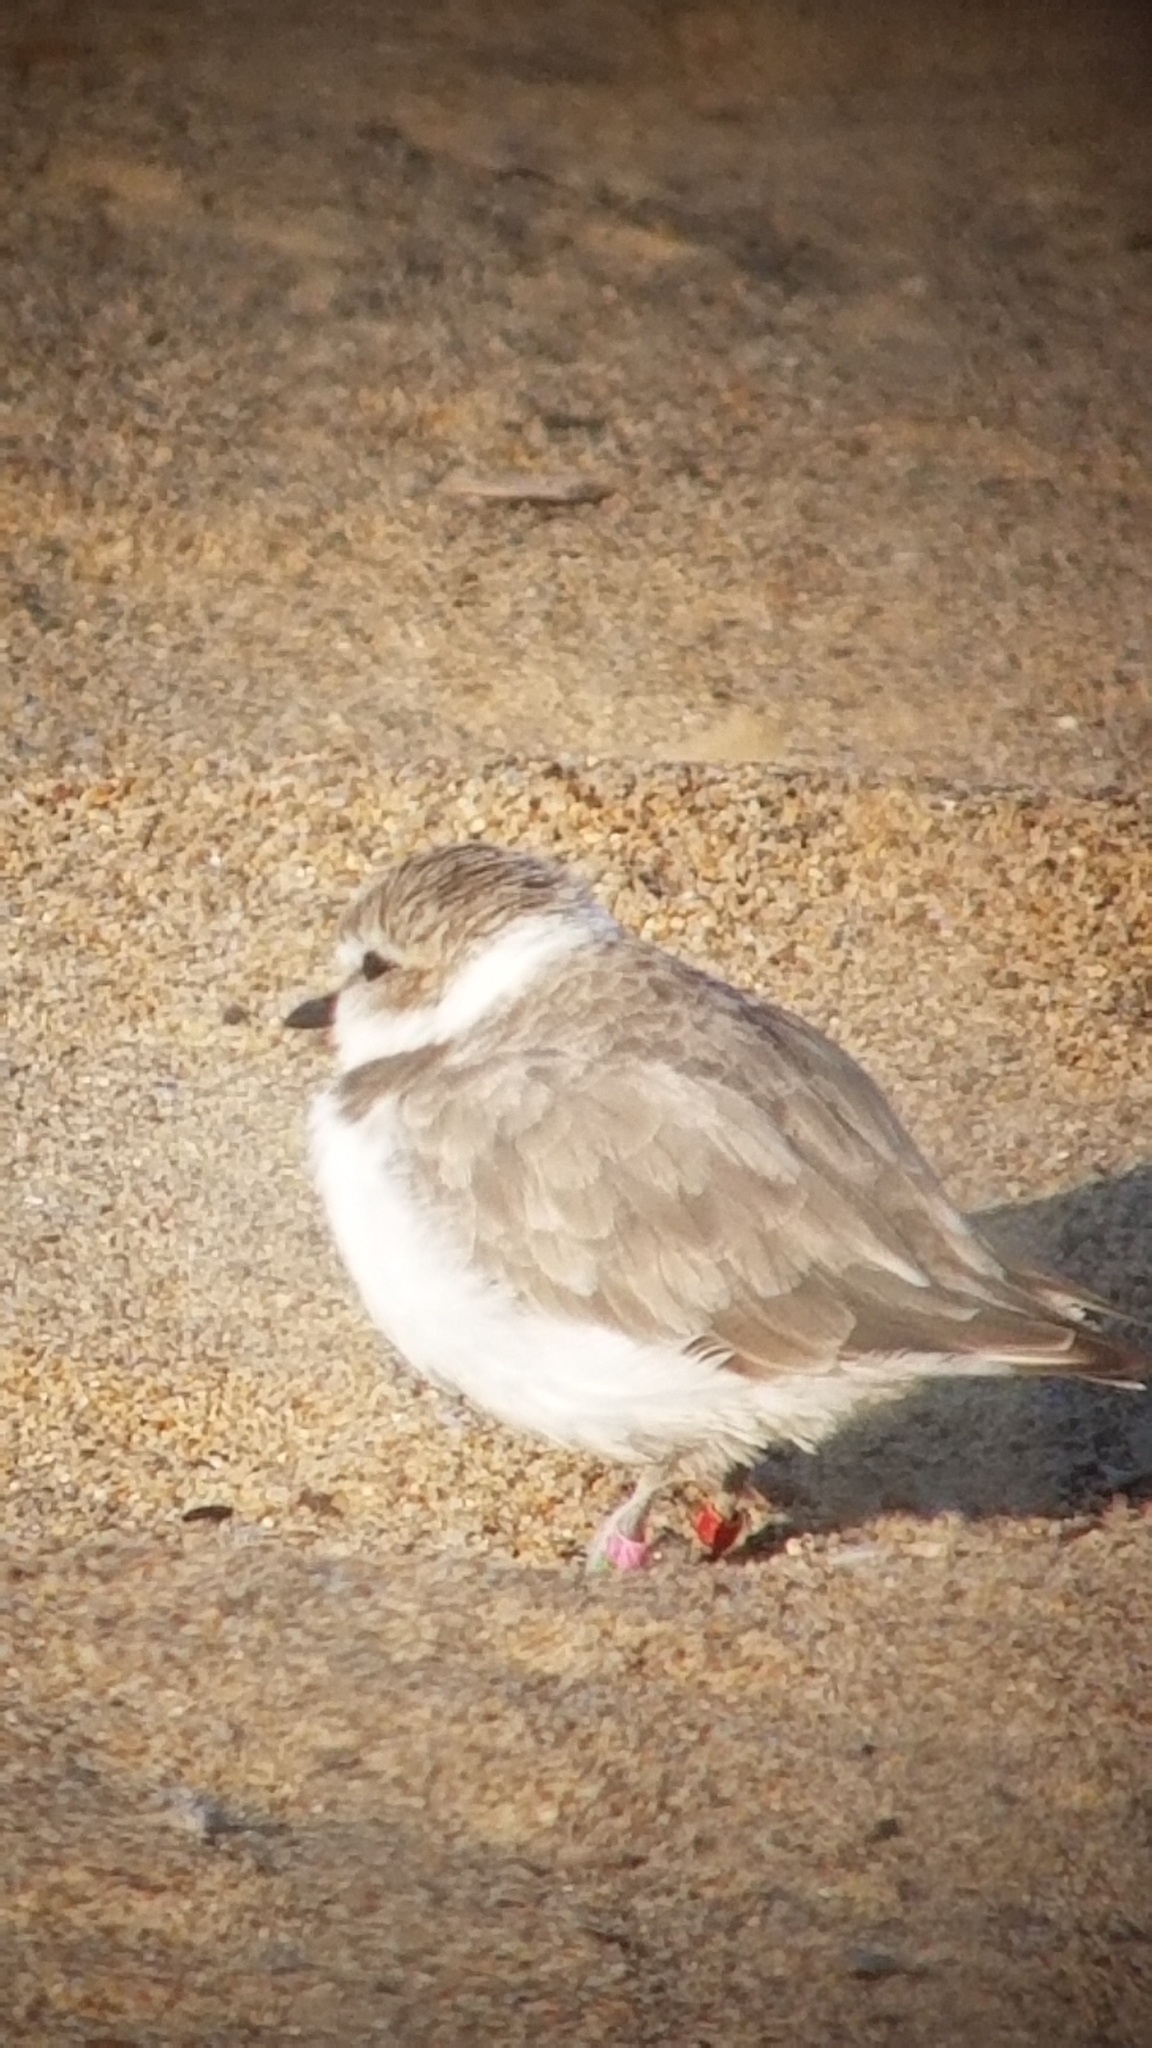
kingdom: Animalia
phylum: Chordata
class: Aves
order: Charadriiformes
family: Charadriidae
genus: Anarhynchus
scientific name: Anarhynchus
